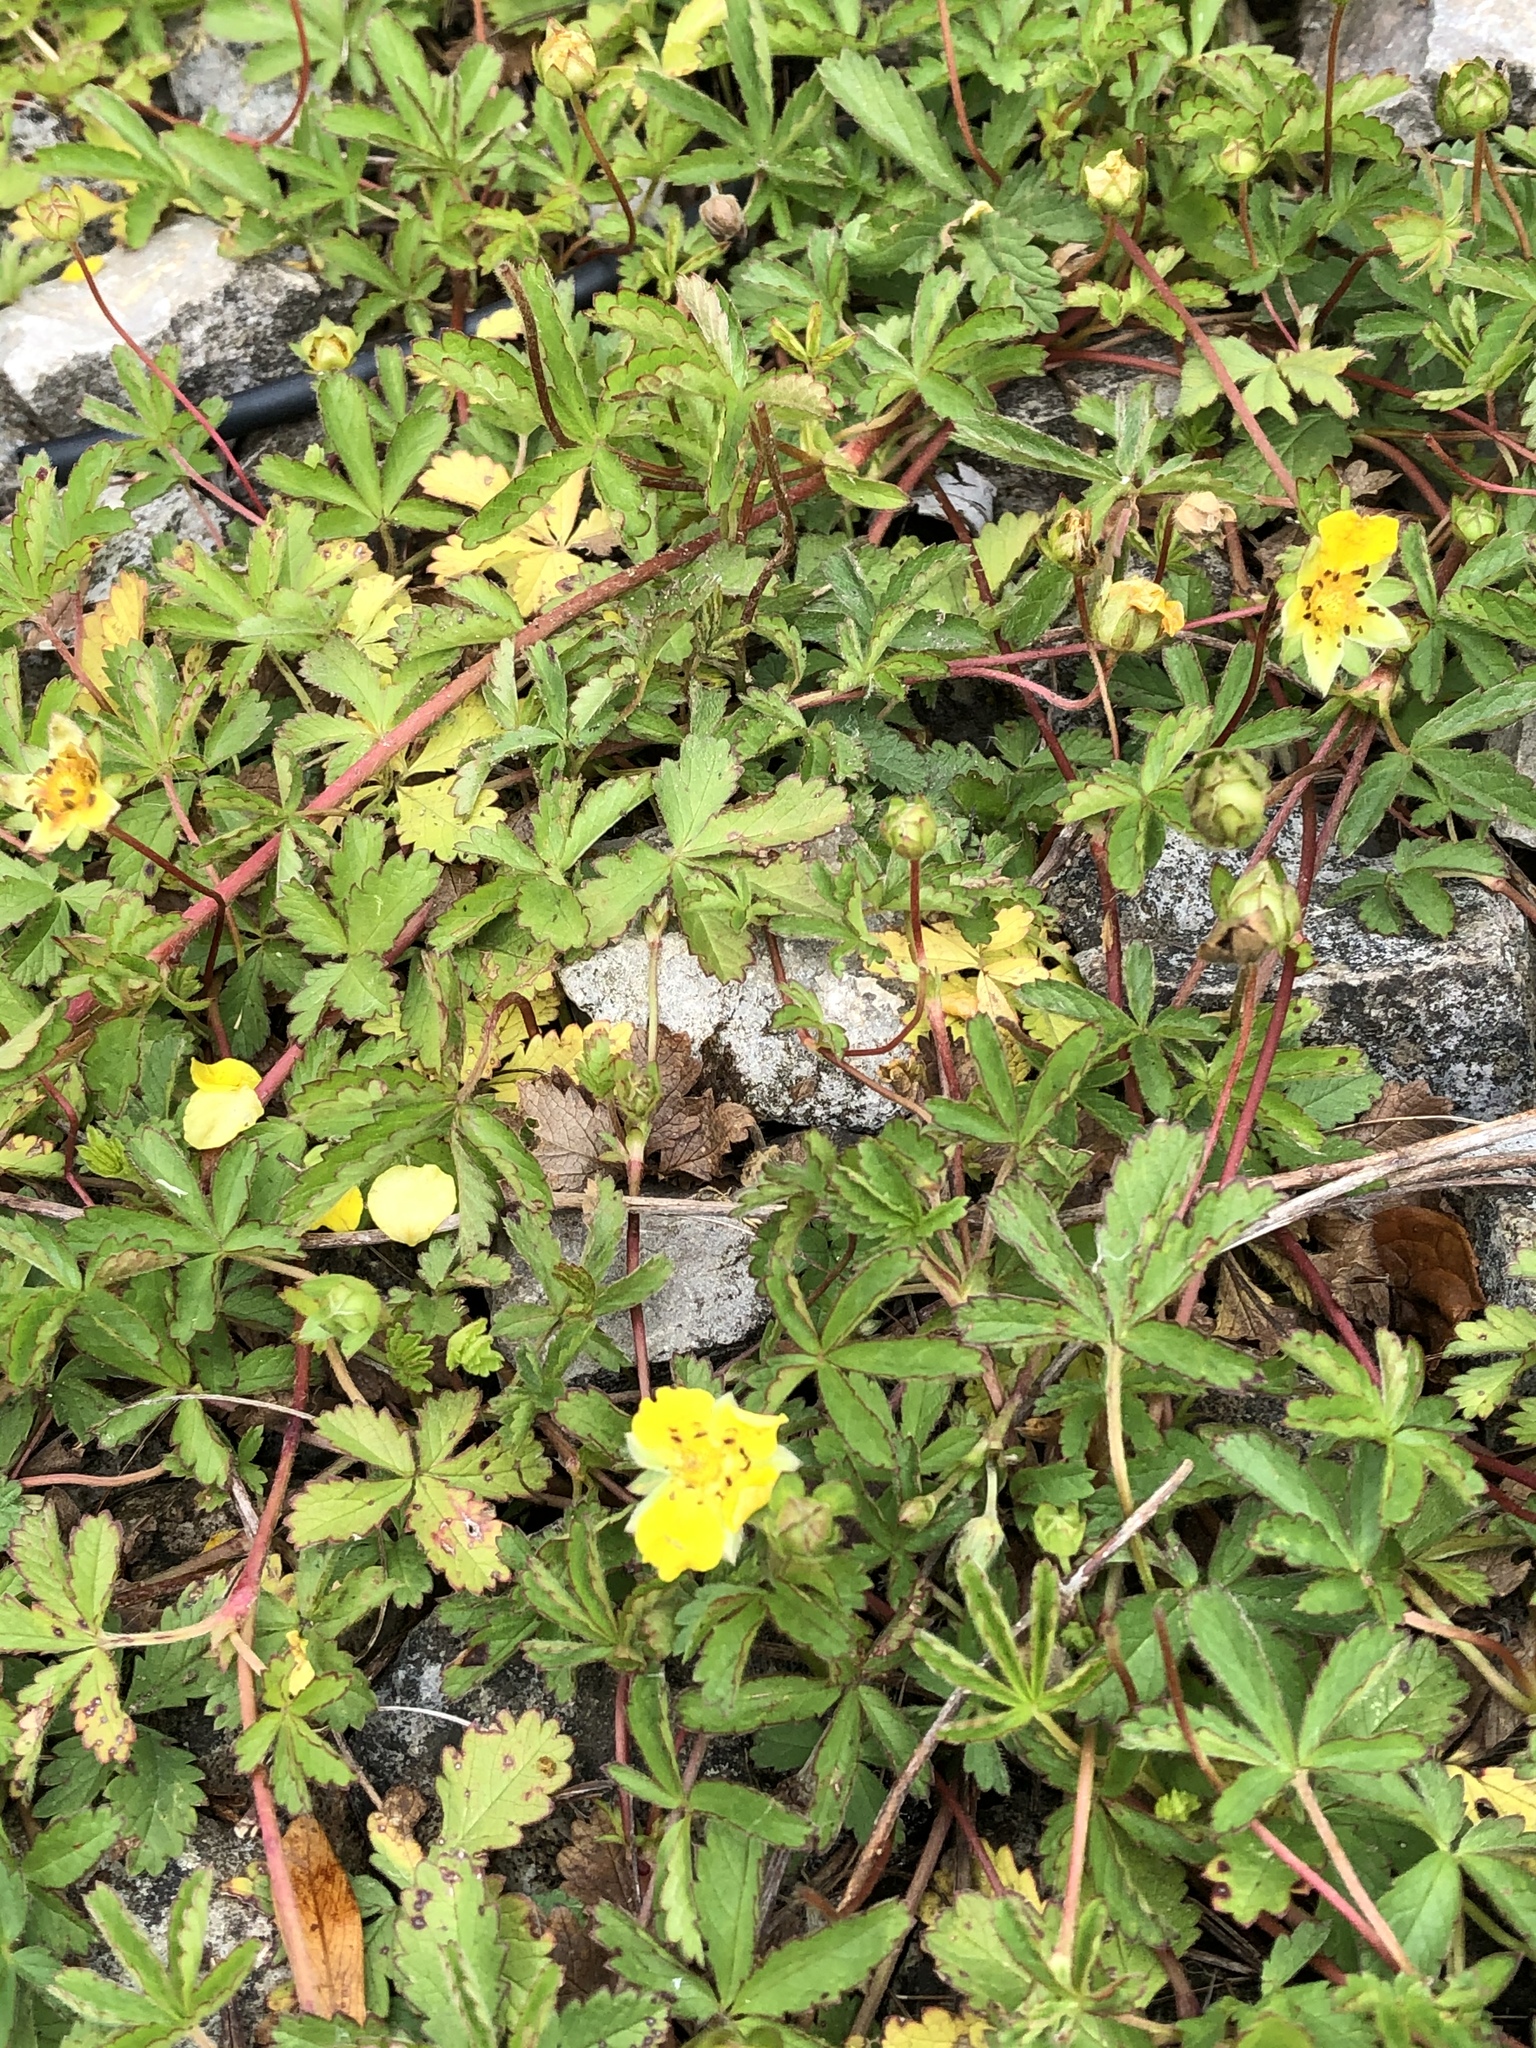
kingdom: Plantae
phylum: Tracheophyta
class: Magnoliopsida
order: Rosales
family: Rosaceae
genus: Potentilla
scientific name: Potentilla reptans
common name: Creeping cinquefoil
